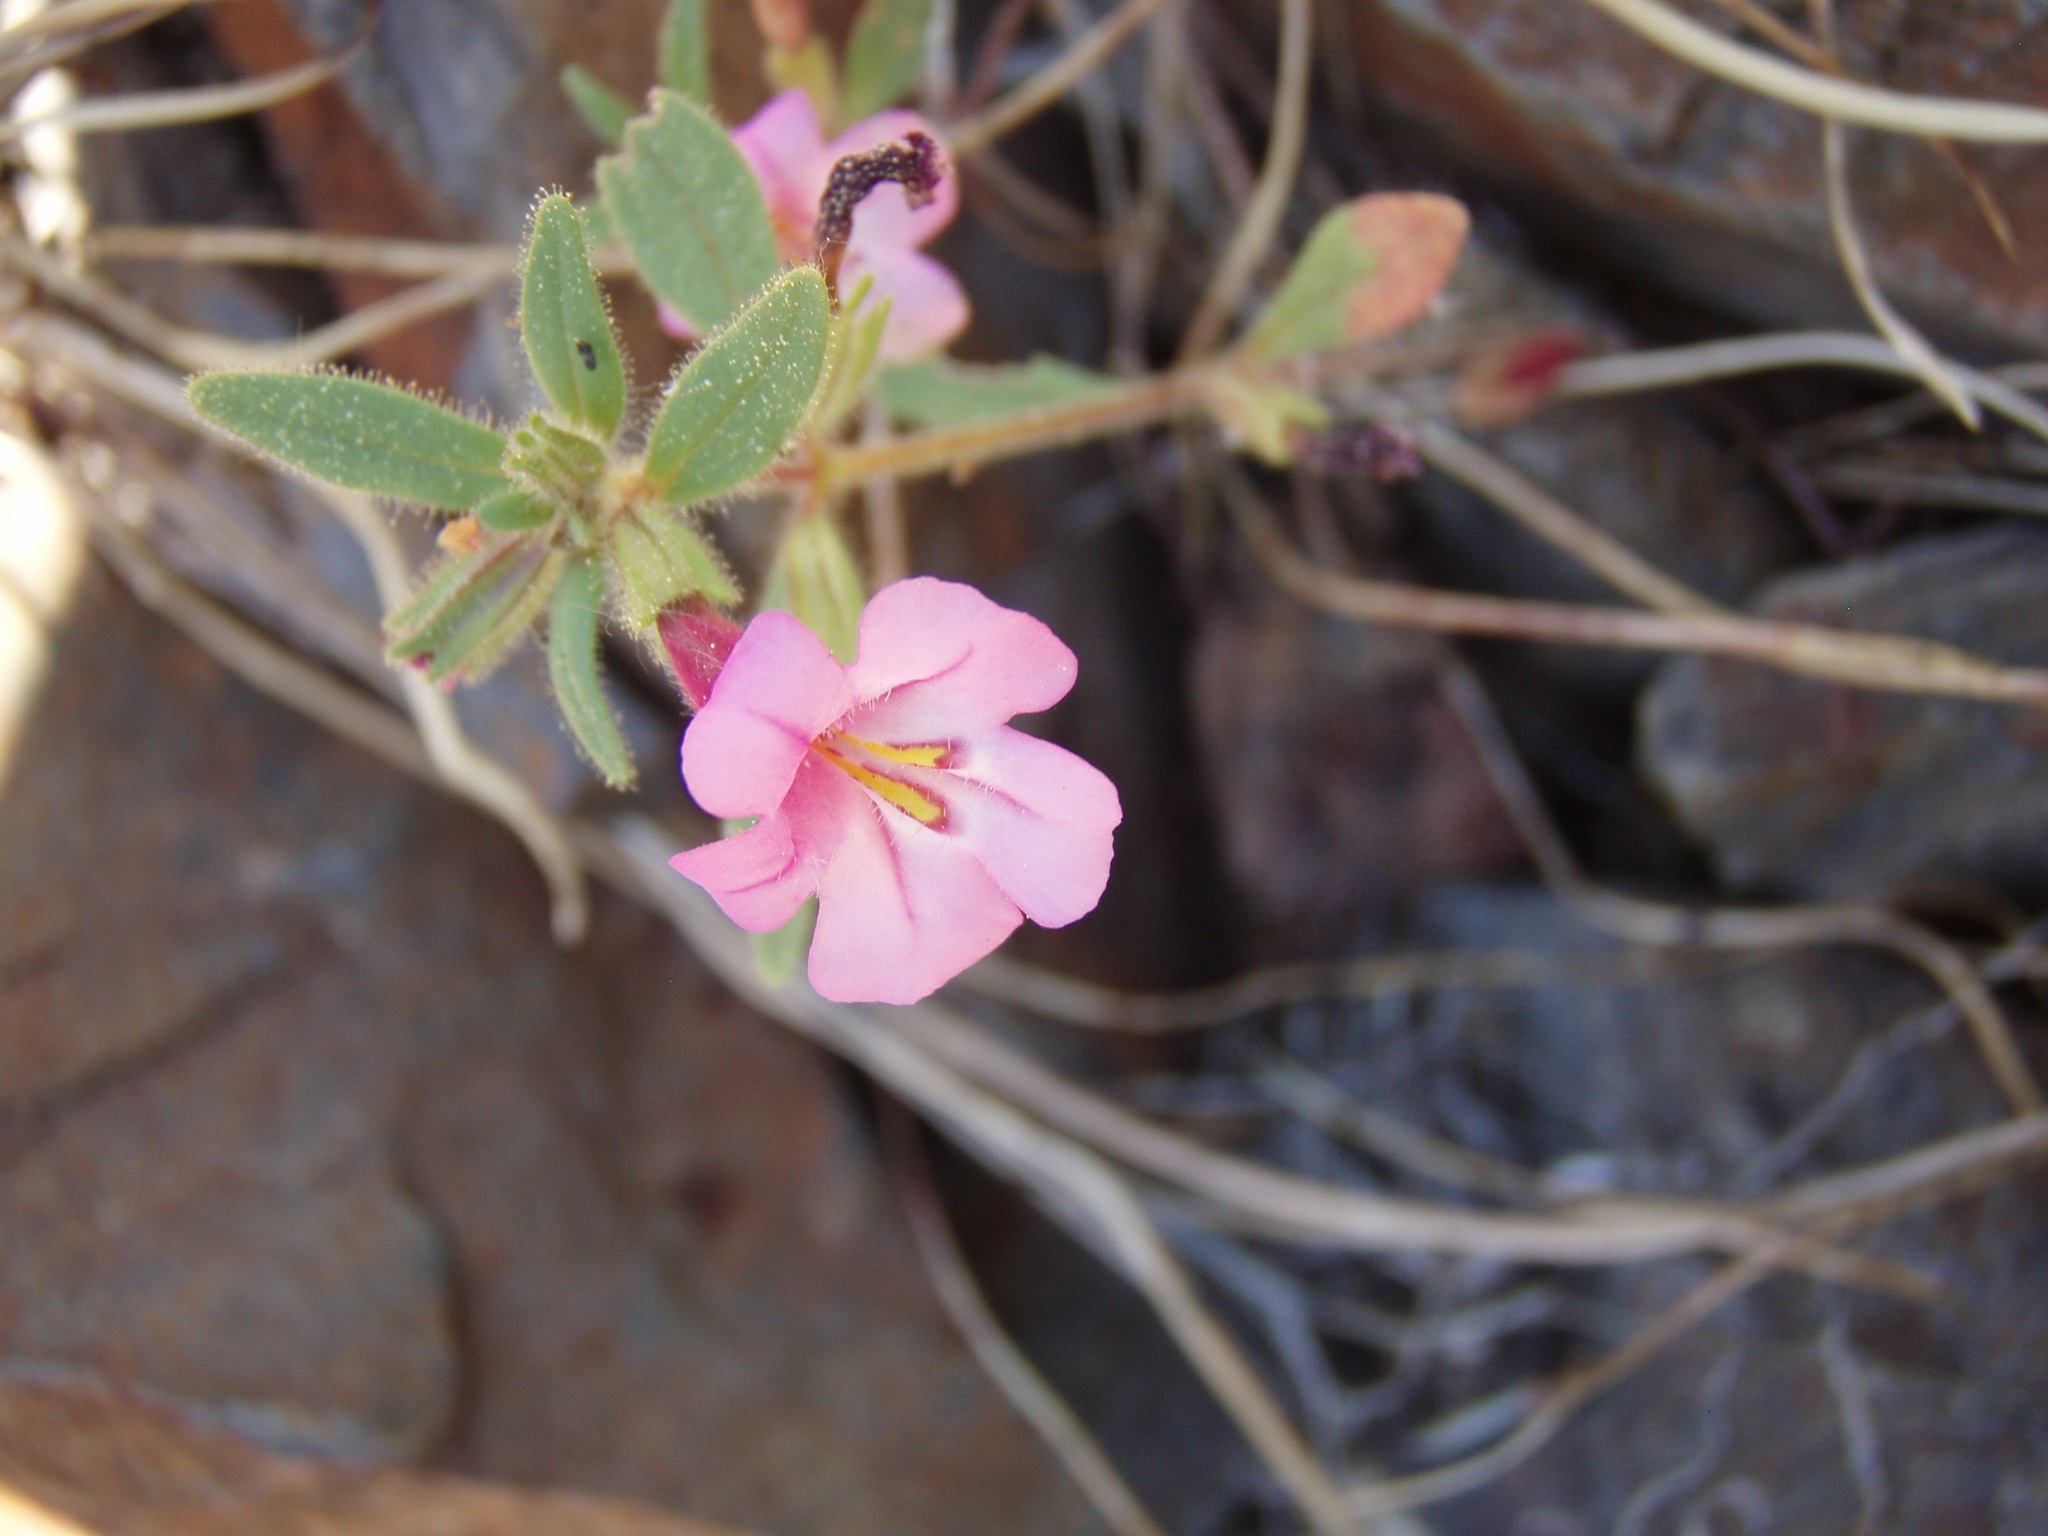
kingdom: Plantae
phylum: Tracheophyta
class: Magnoliopsida
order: Lamiales
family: Phrymaceae
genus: Diplacus
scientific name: Diplacus torreyi
